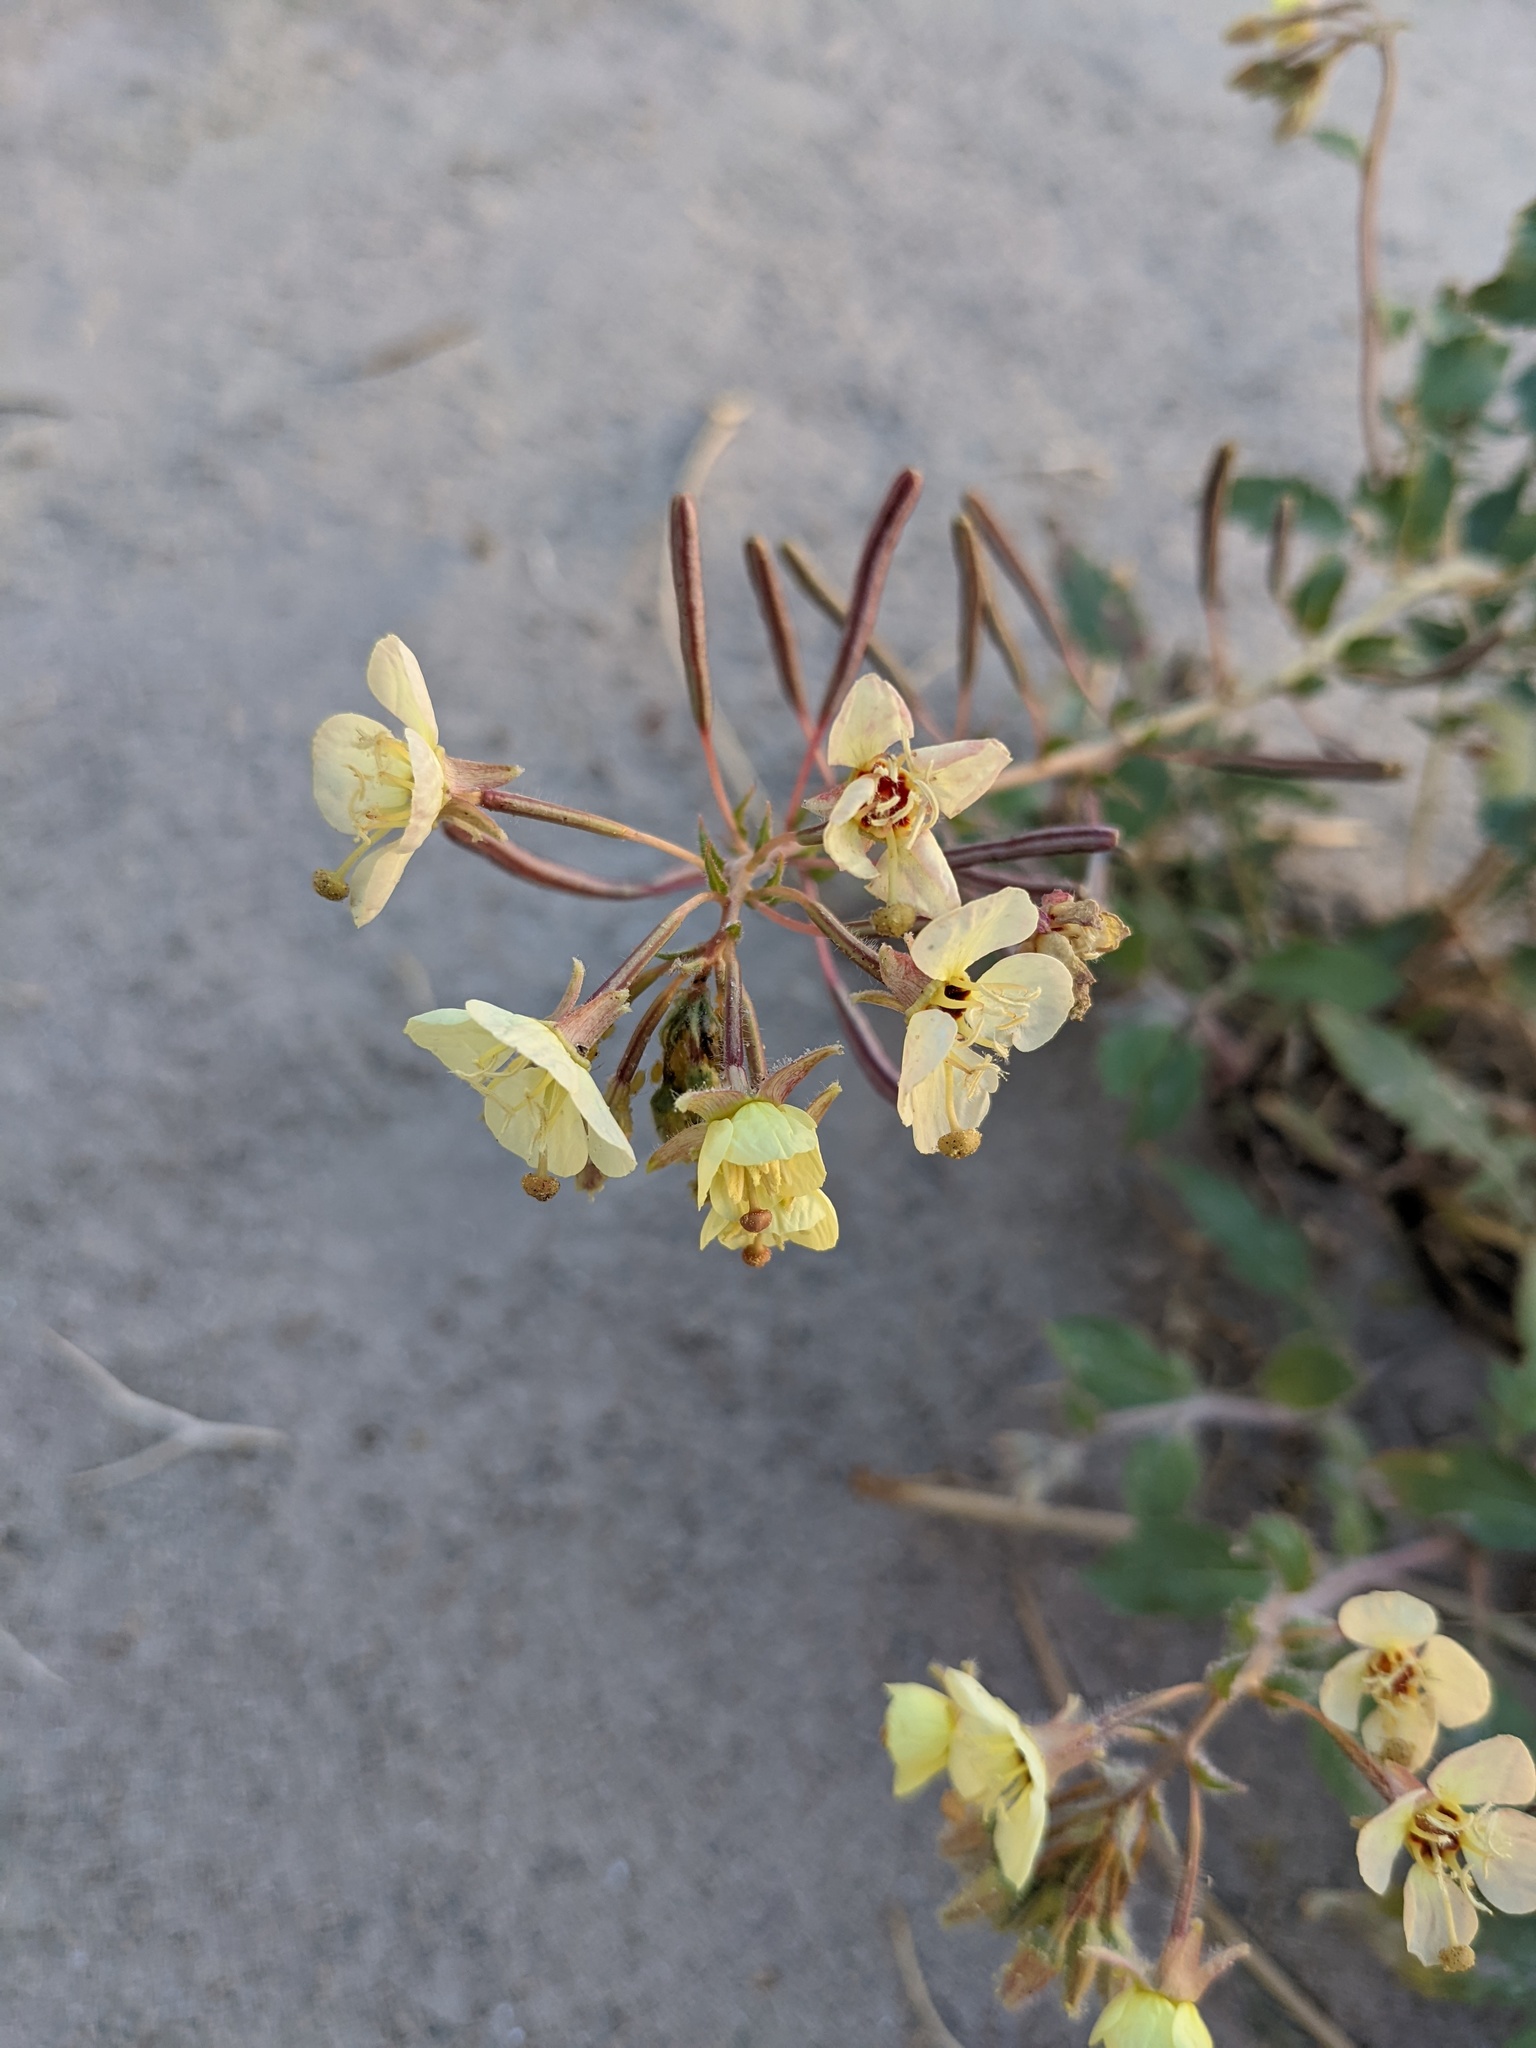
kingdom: Plantae
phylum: Tracheophyta
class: Magnoliopsida
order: Myrtales
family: Onagraceae
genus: Chylismia
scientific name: Chylismia claviformis
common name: Browneyes
